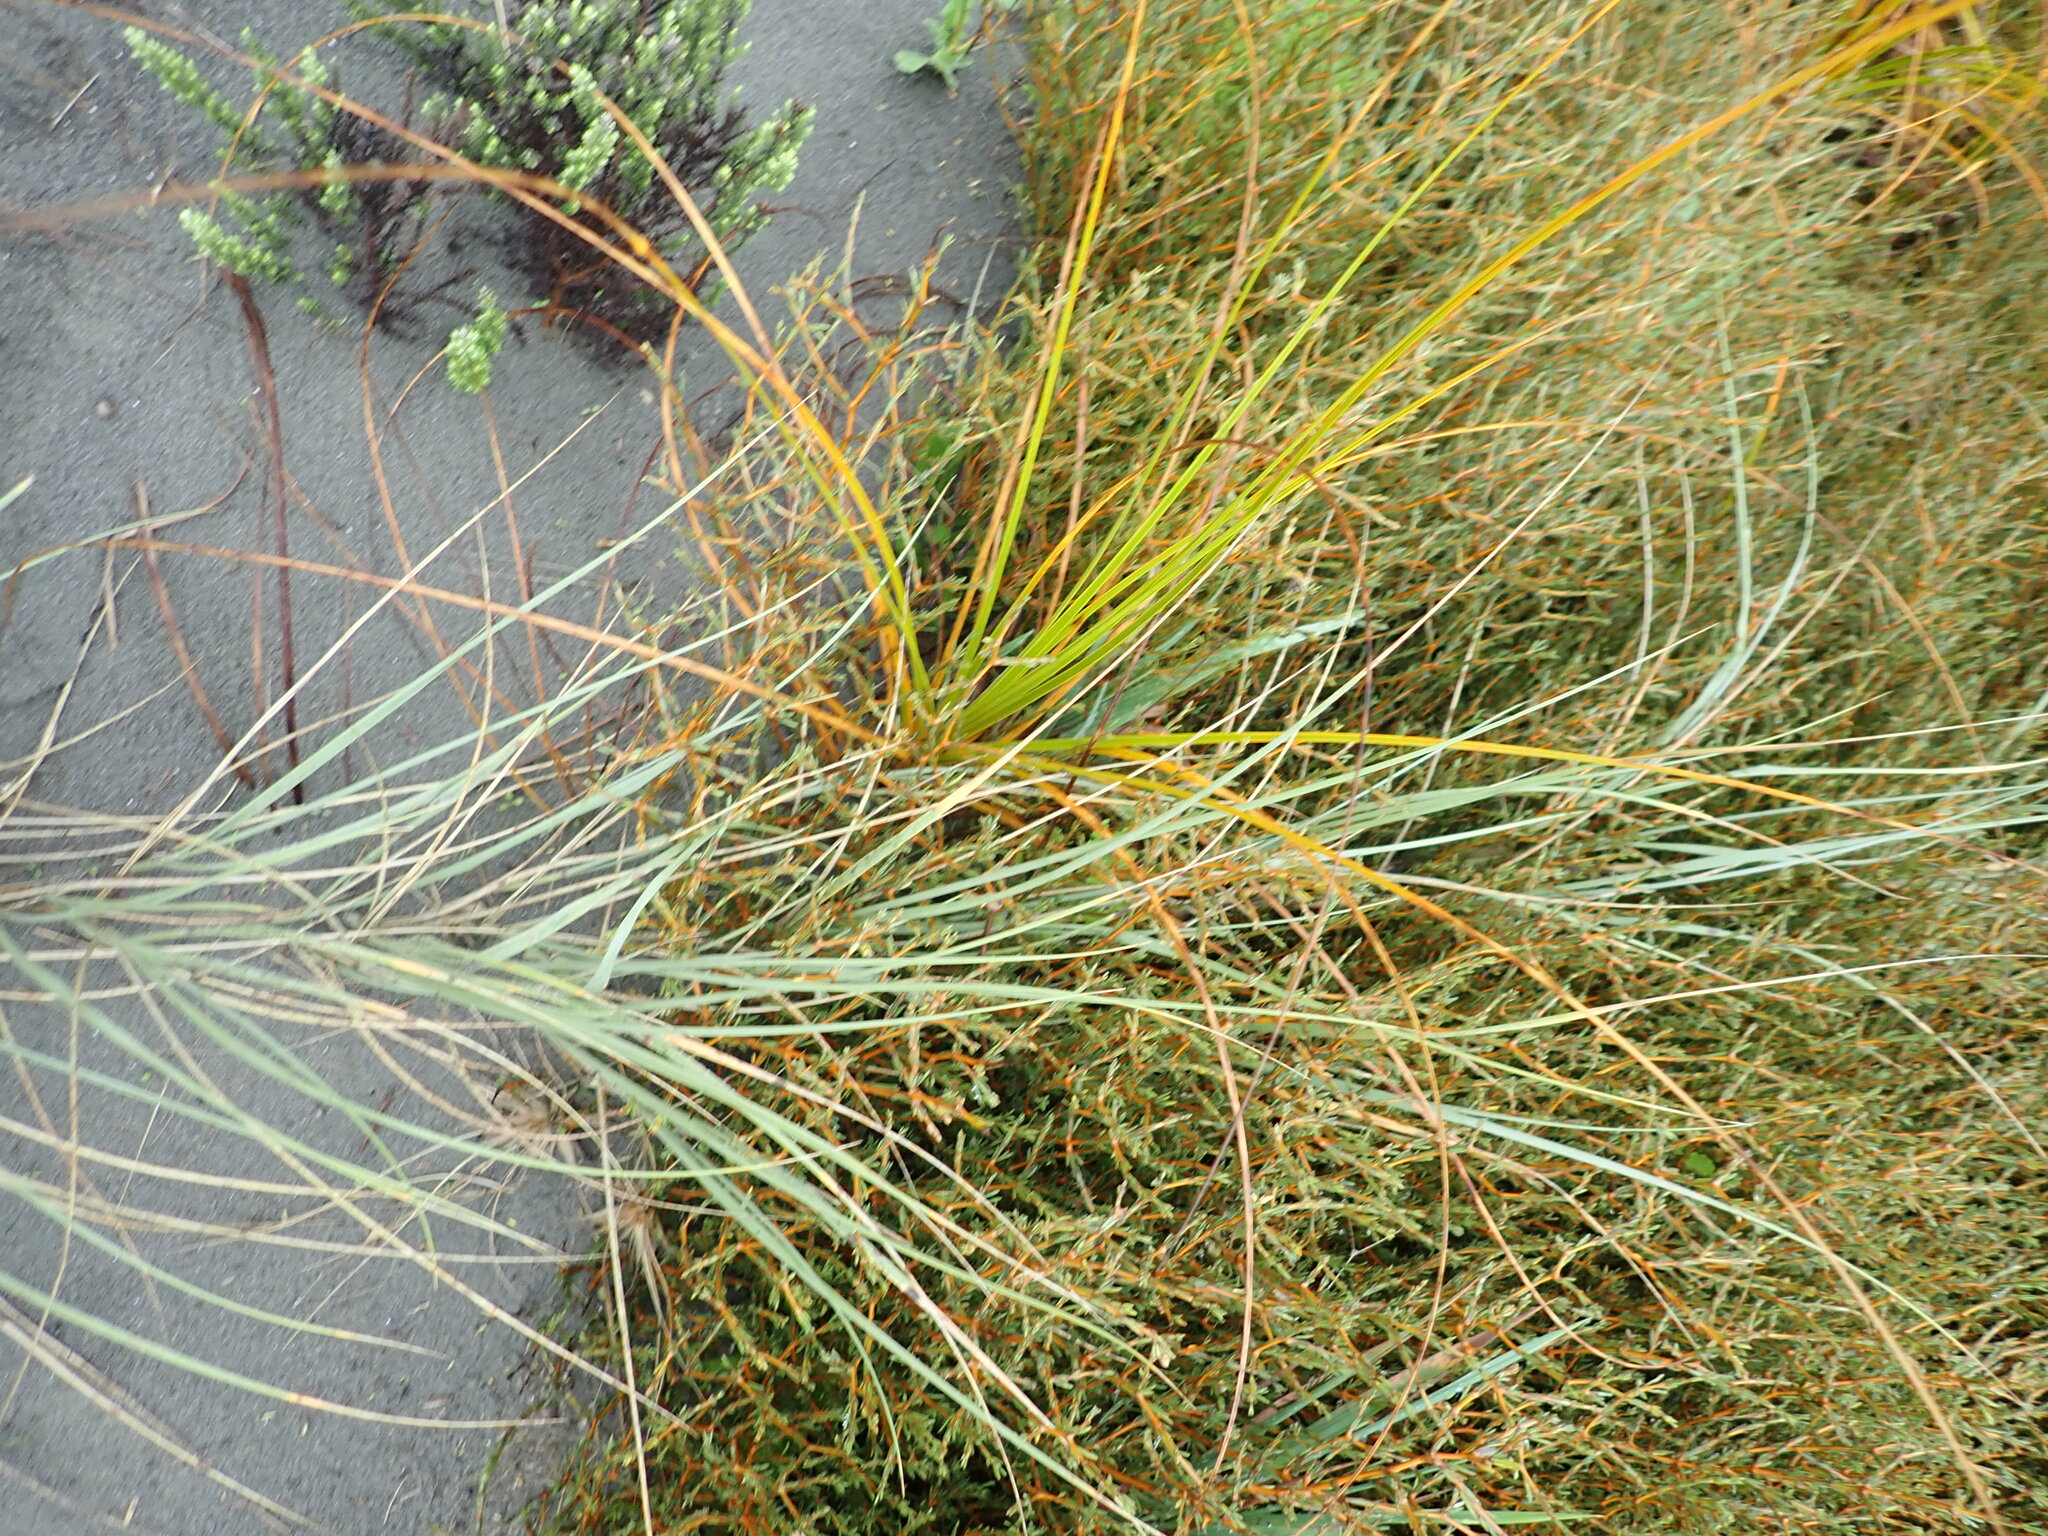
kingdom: Plantae
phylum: Tracheophyta
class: Liliopsida
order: Poales
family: Cyperaceae
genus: Ficinia
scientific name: Ficinia spiralis
